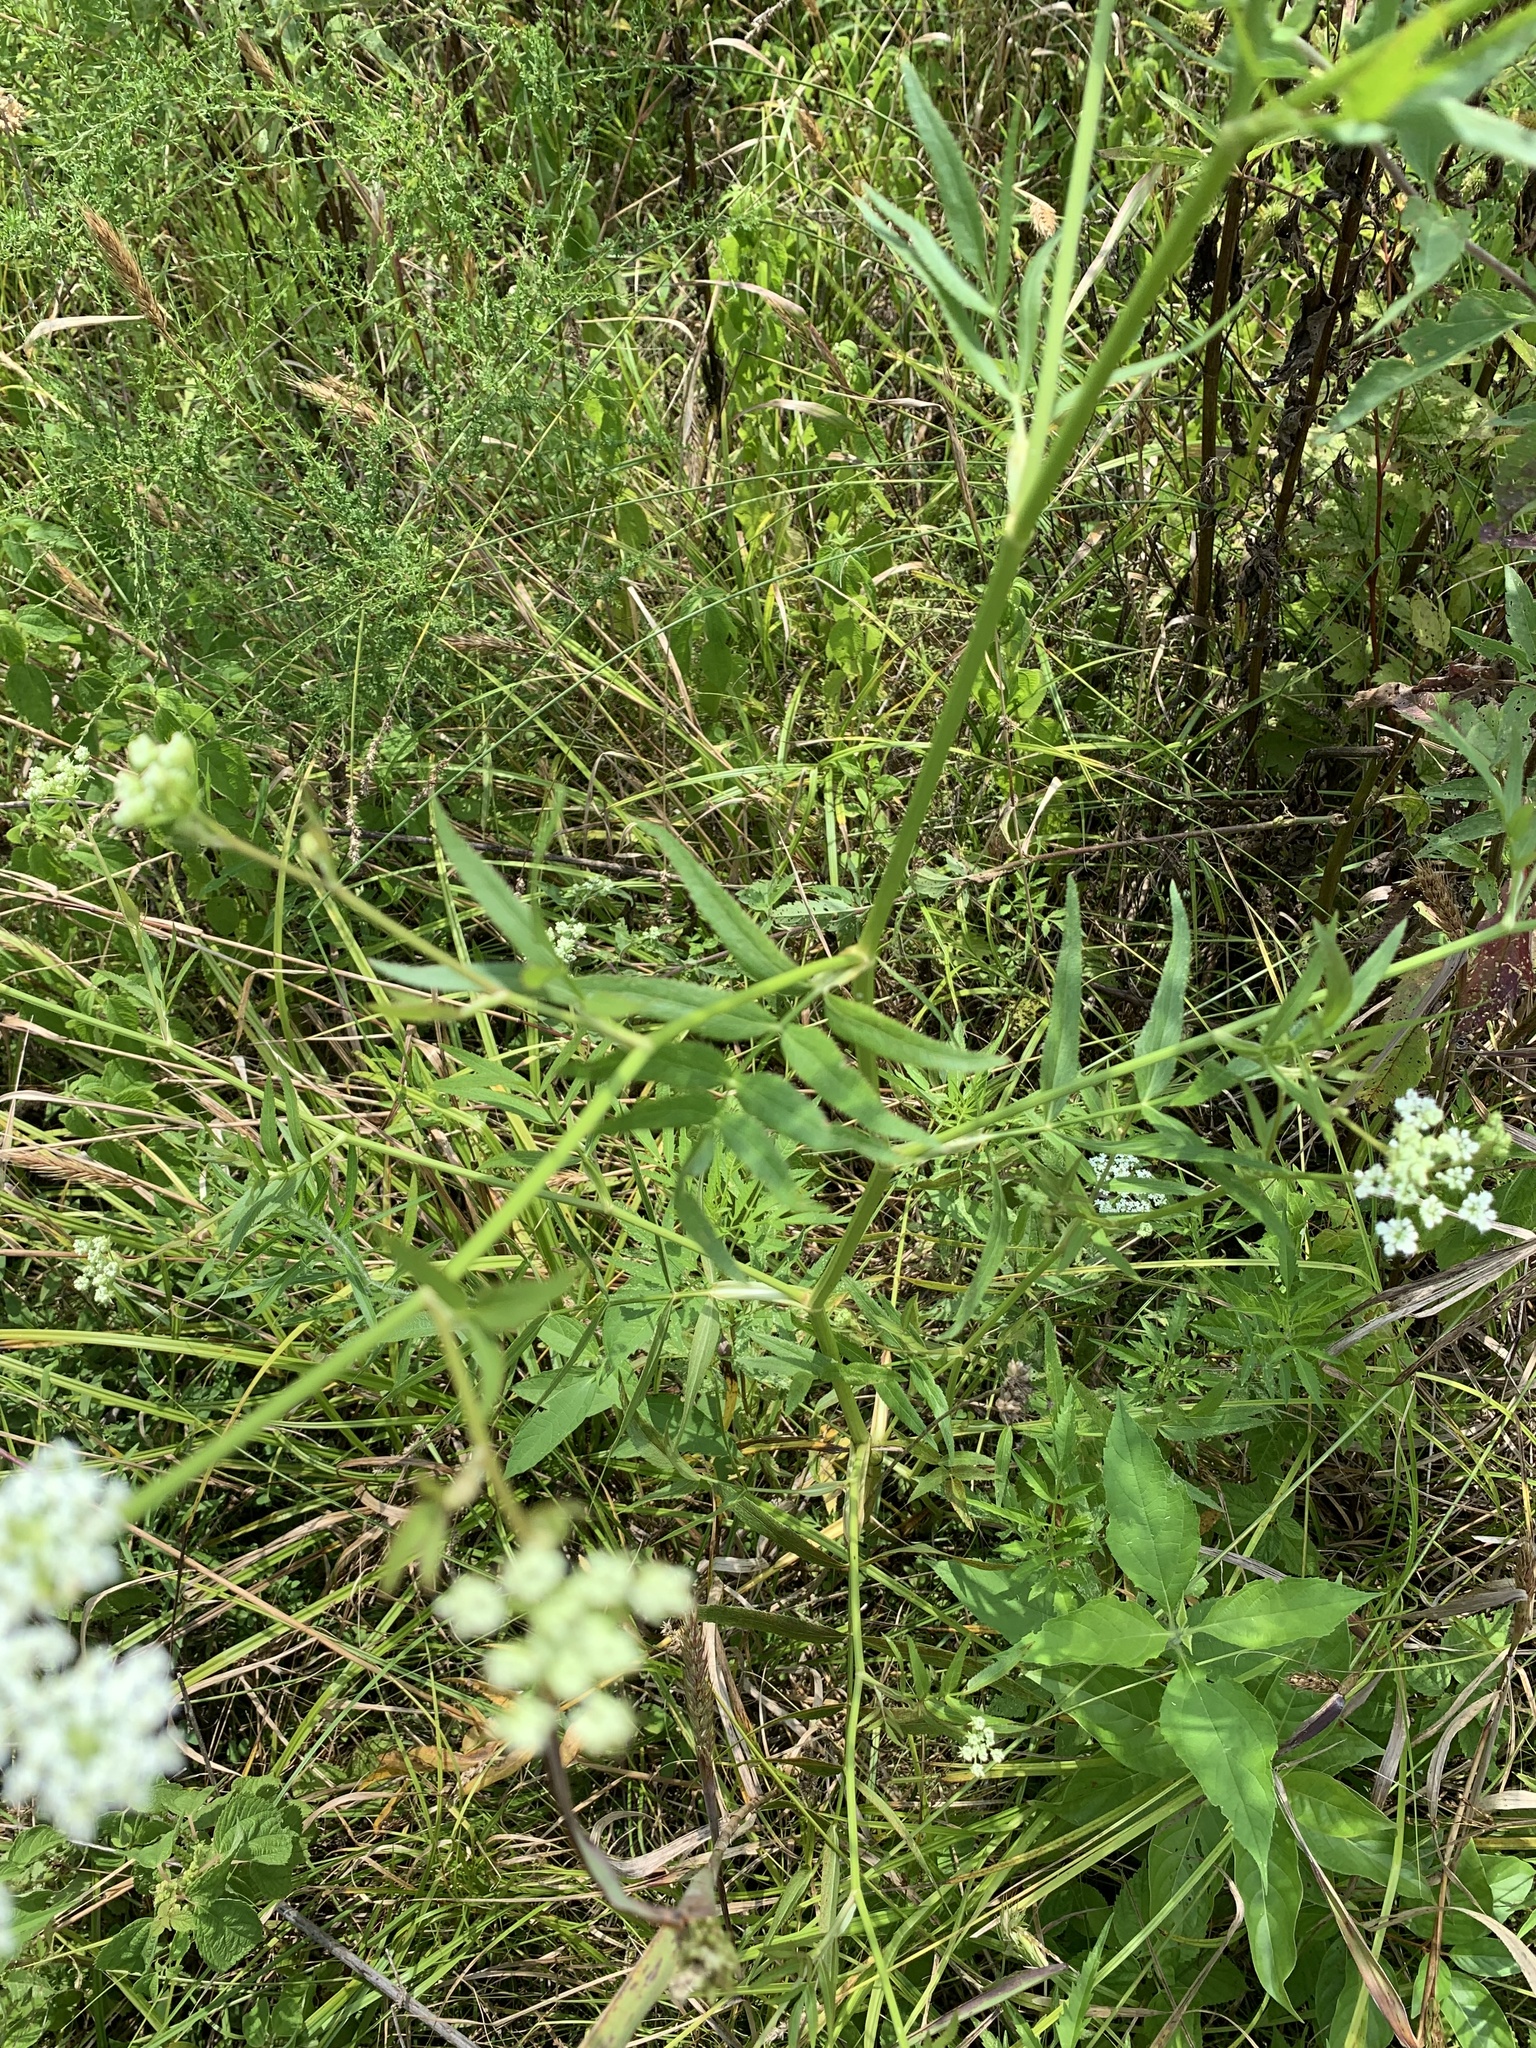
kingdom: Plantae
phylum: Tracheophyta
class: Magnoliopsida
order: Apiales
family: Apiaceae
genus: Sium
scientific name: Sium suave
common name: Hemlock water-parsnip
